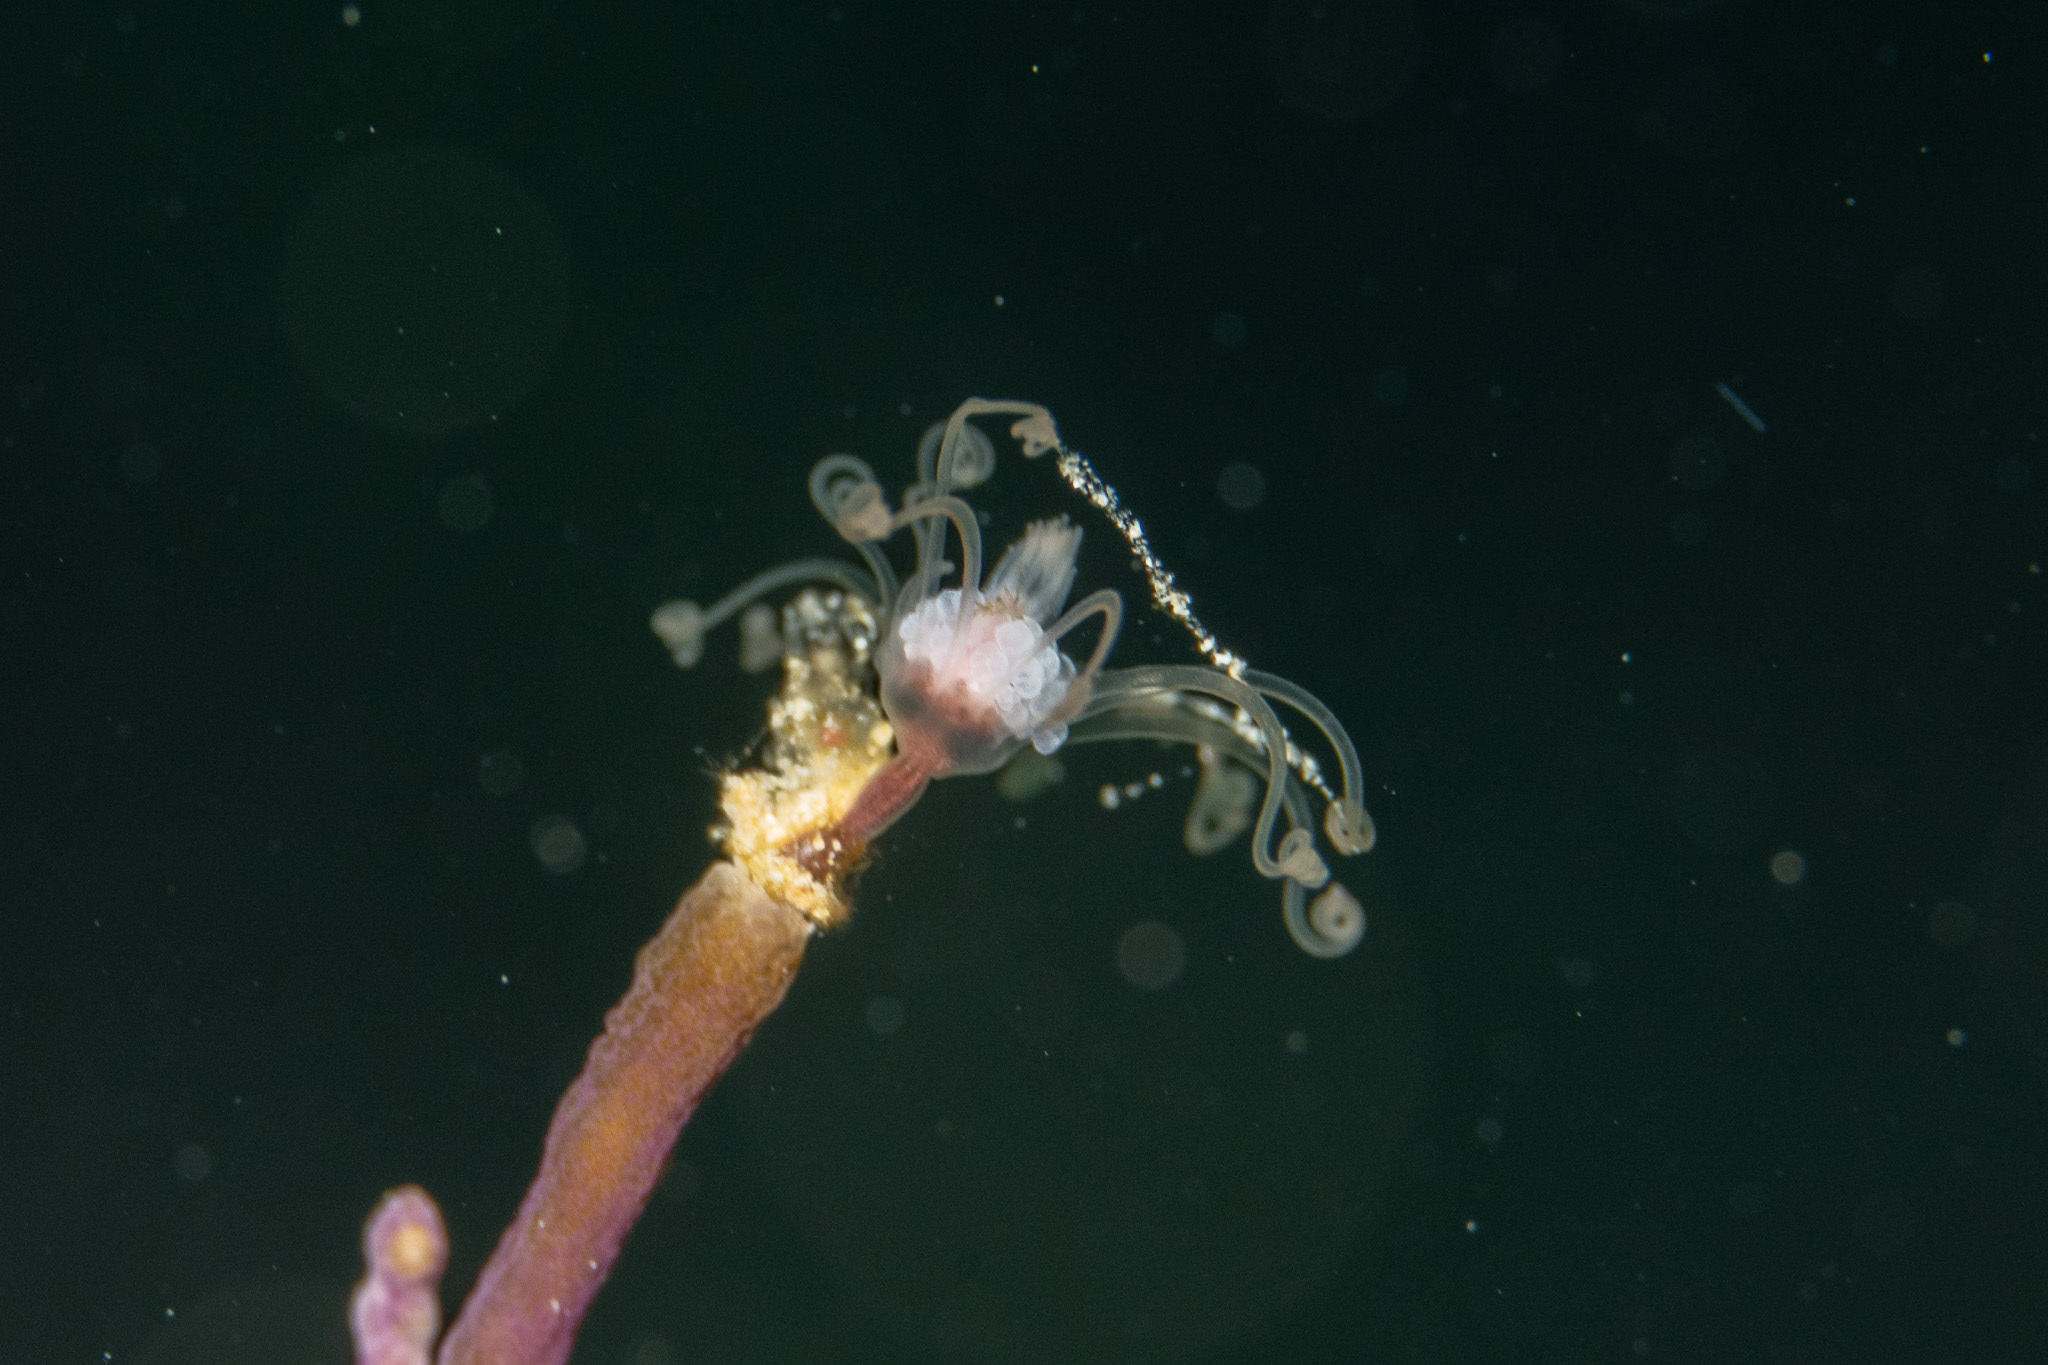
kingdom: Animalia
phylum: Cnidaria
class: Hydrozoa
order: Anthoathecata
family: Tubulariidae
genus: Ralpharia
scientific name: Ralpharia gorgoniae
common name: Solitary gorgonian hydroid
